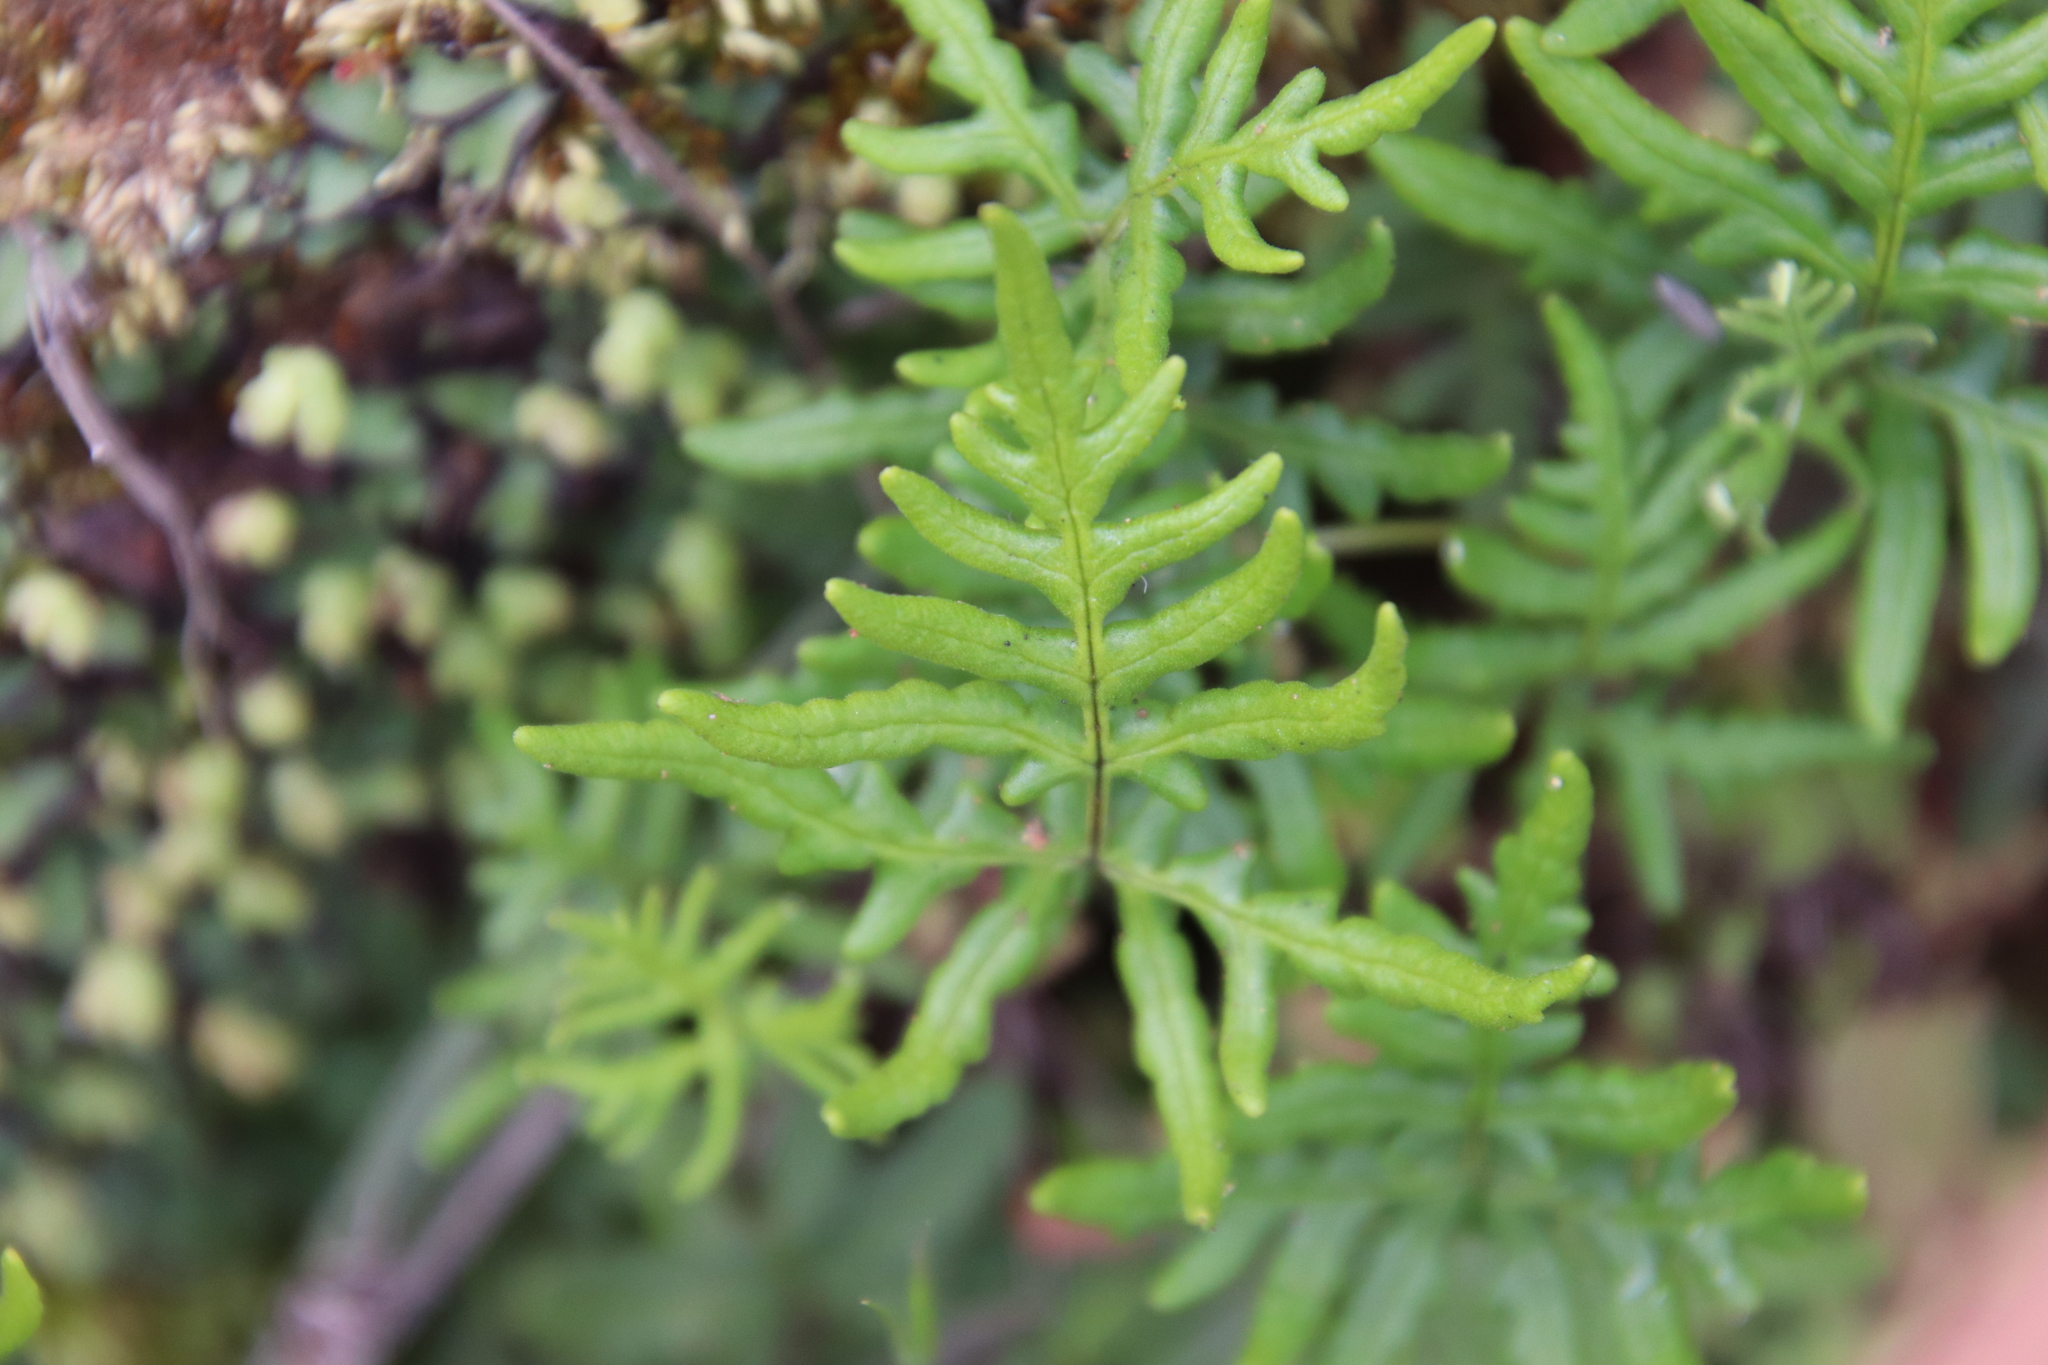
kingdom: Plantae
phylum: Tracheophyta
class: Polypodiopsida
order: Polypodiales
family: Pteridaceae
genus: Pentagramma
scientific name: Pentagramma viscosa
